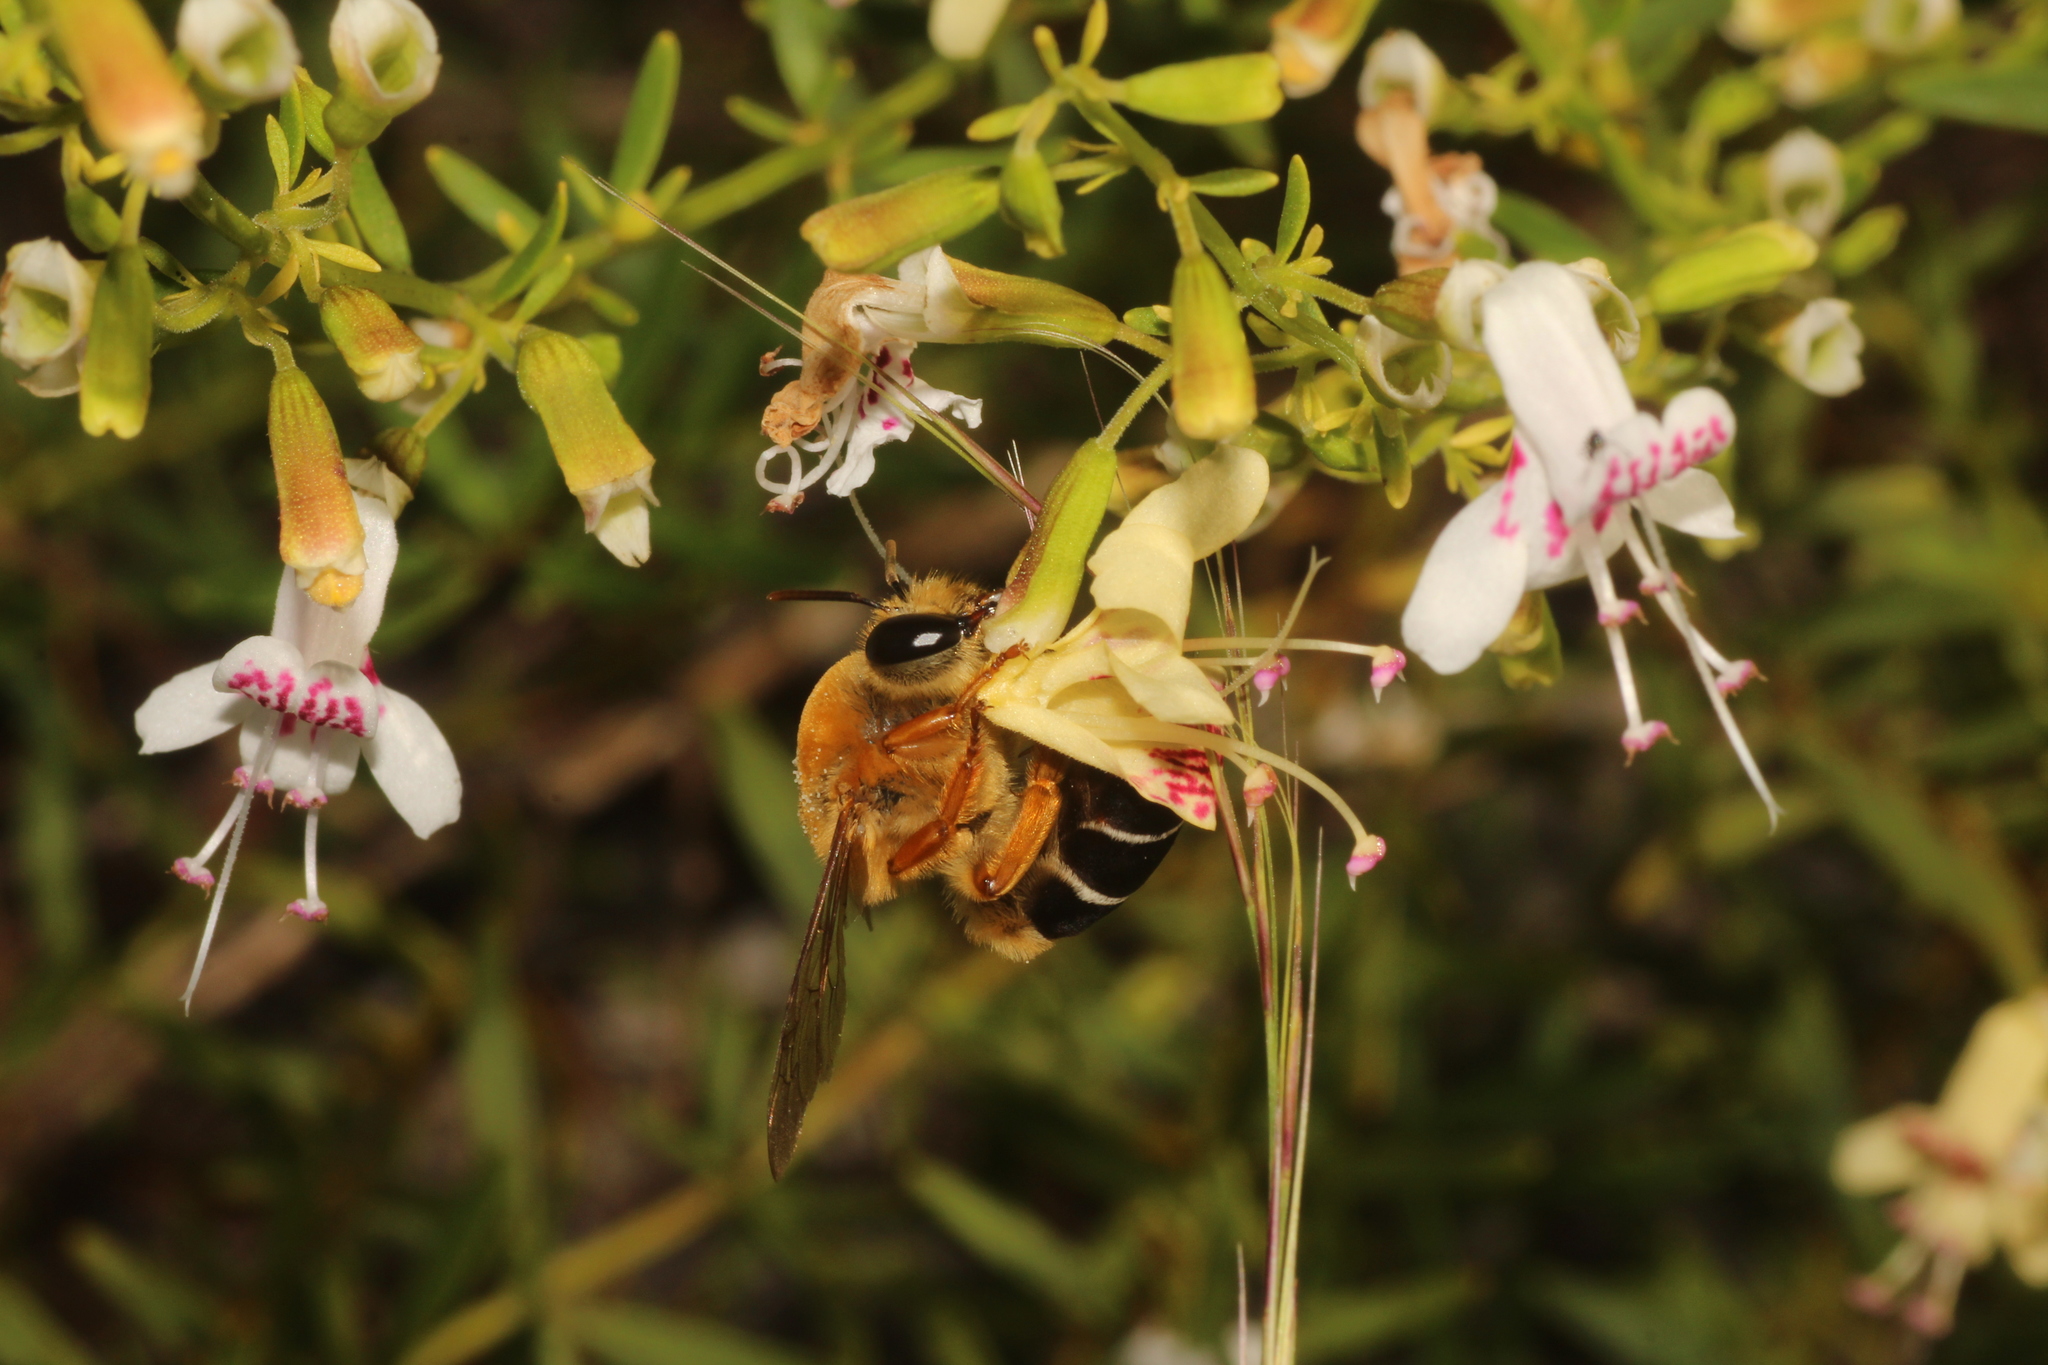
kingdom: Animalia
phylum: Arthropoda
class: Insecta
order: Hymenoptera
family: Colletidae
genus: Caupolicana
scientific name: Caupolicana floridana
